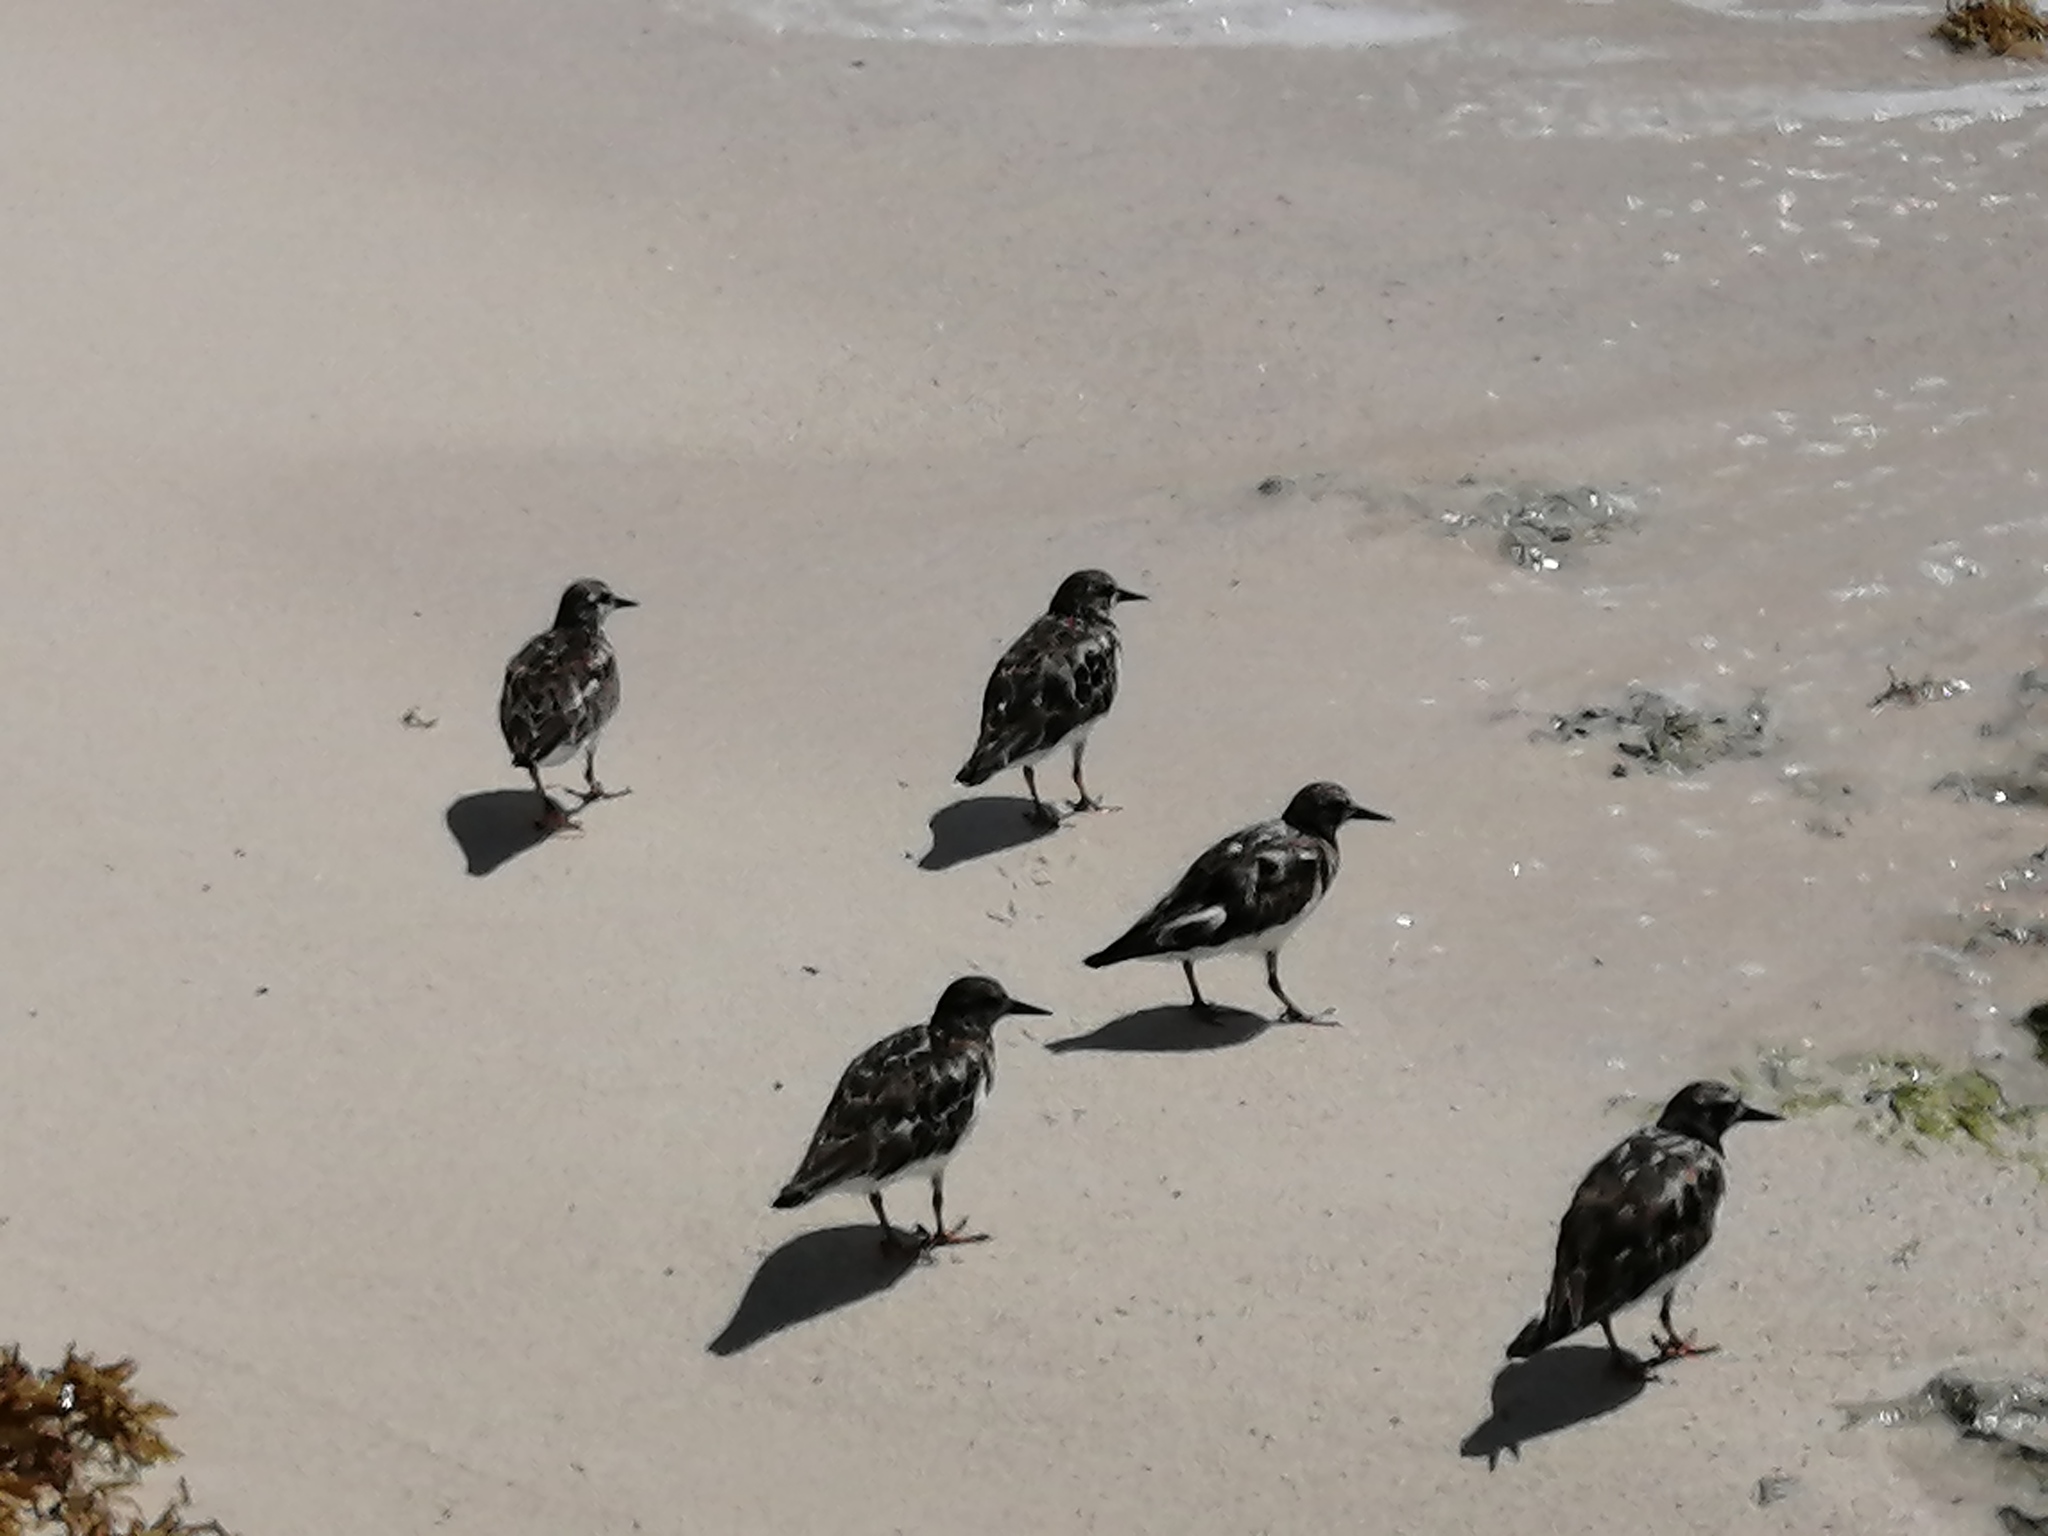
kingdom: Animalia
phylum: Chordata
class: Aves
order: Charadriiformes
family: Scolopacidae
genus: Arenaria
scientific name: Arenaria interpres
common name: Ruddy turnstone
